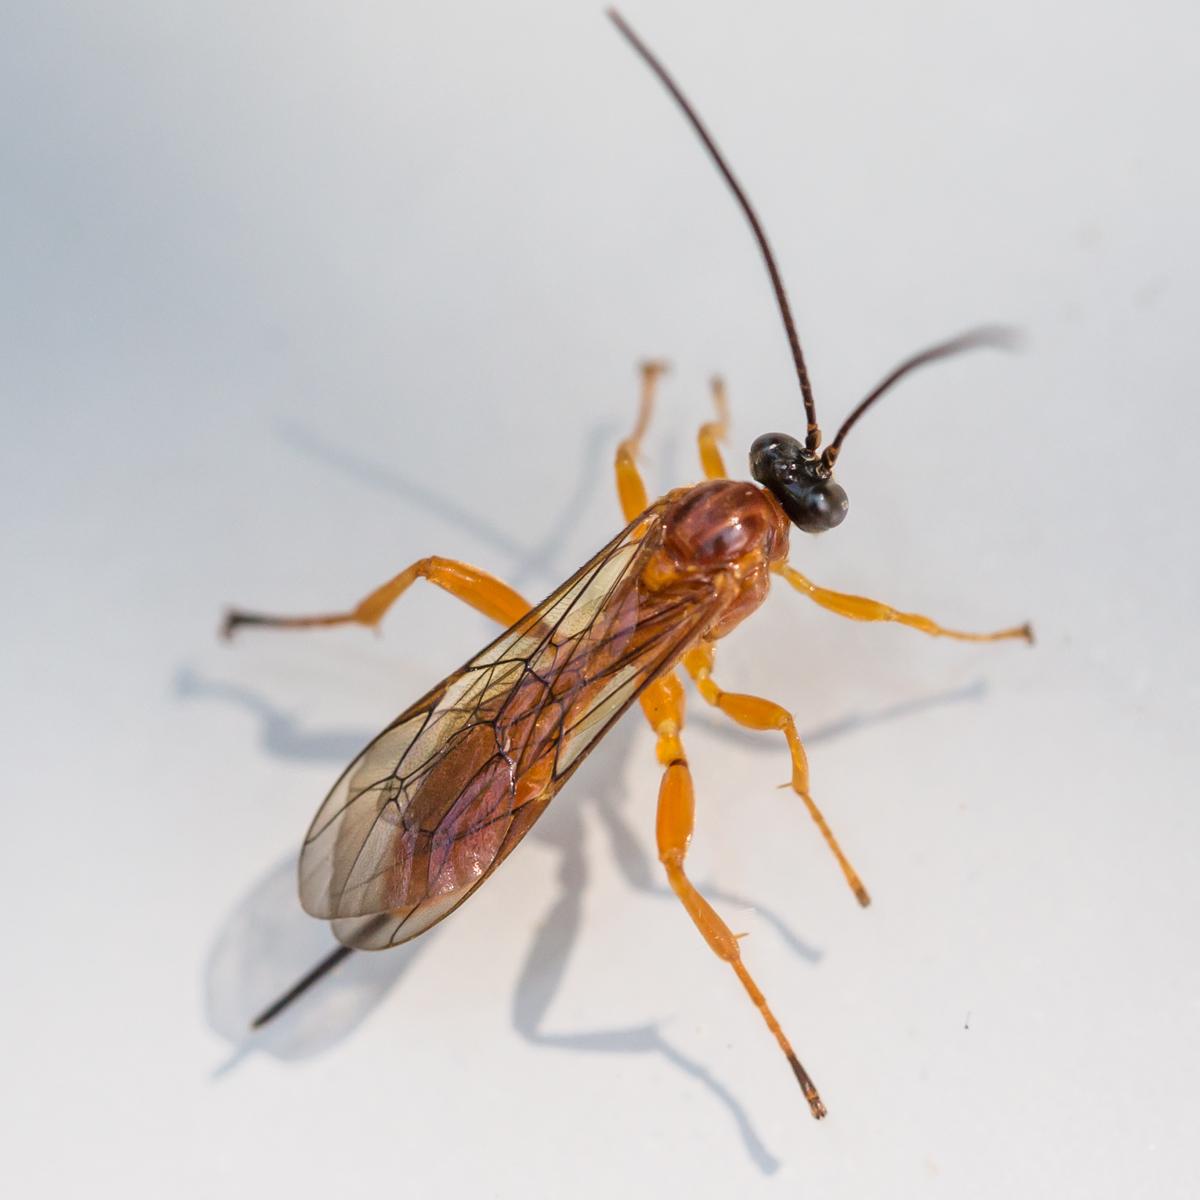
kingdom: Animalia
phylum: Arthropoda
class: Insecta
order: Hymenoptera
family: Ichneumonidae
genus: Theronia
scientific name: Theronia hilaris
